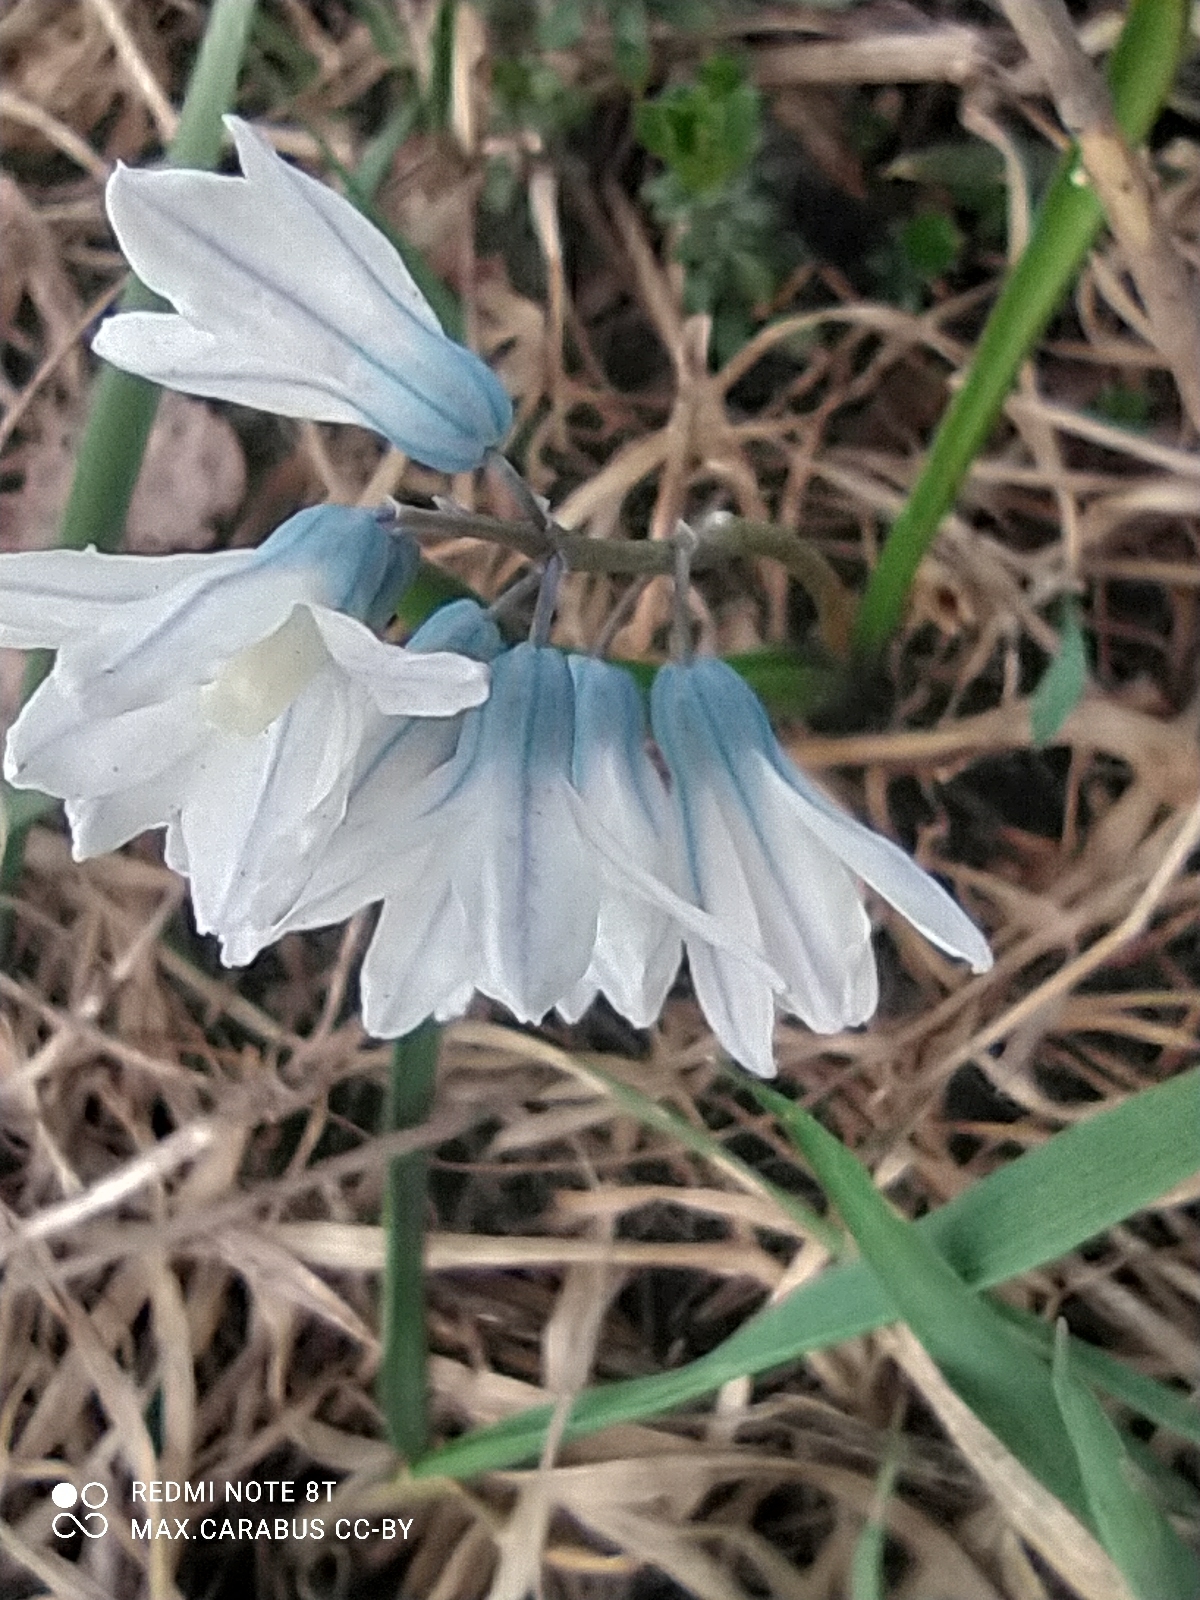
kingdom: Plantae
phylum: Tracheophyta
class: Liliopsida
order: Asparagales
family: Asparagaceae
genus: Puschkinia
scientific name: Puschkinia scilloides
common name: Striped squill
